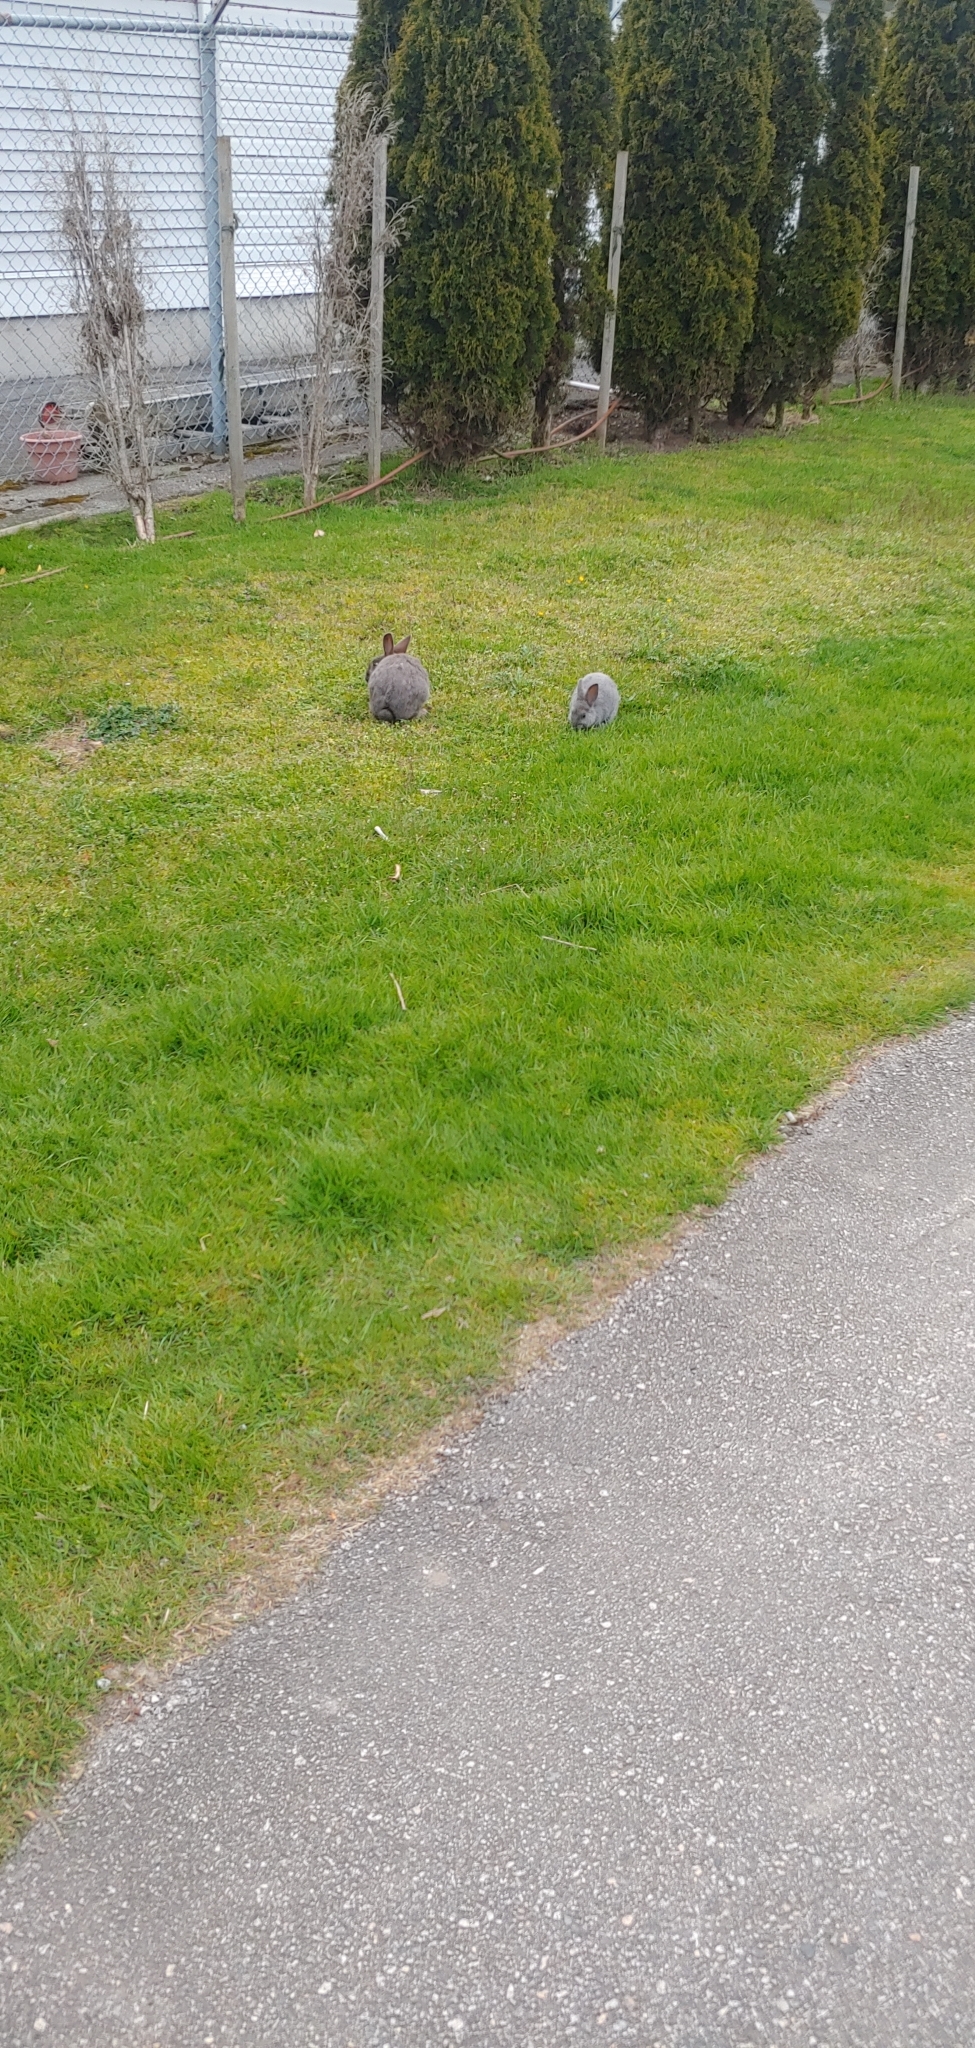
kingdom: Animalia
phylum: Chordata
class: Mammalia
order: Lagomorpha
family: Leporidae
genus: Oryctolagus
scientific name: Oryctolagus cuniculus
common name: European rabbit
